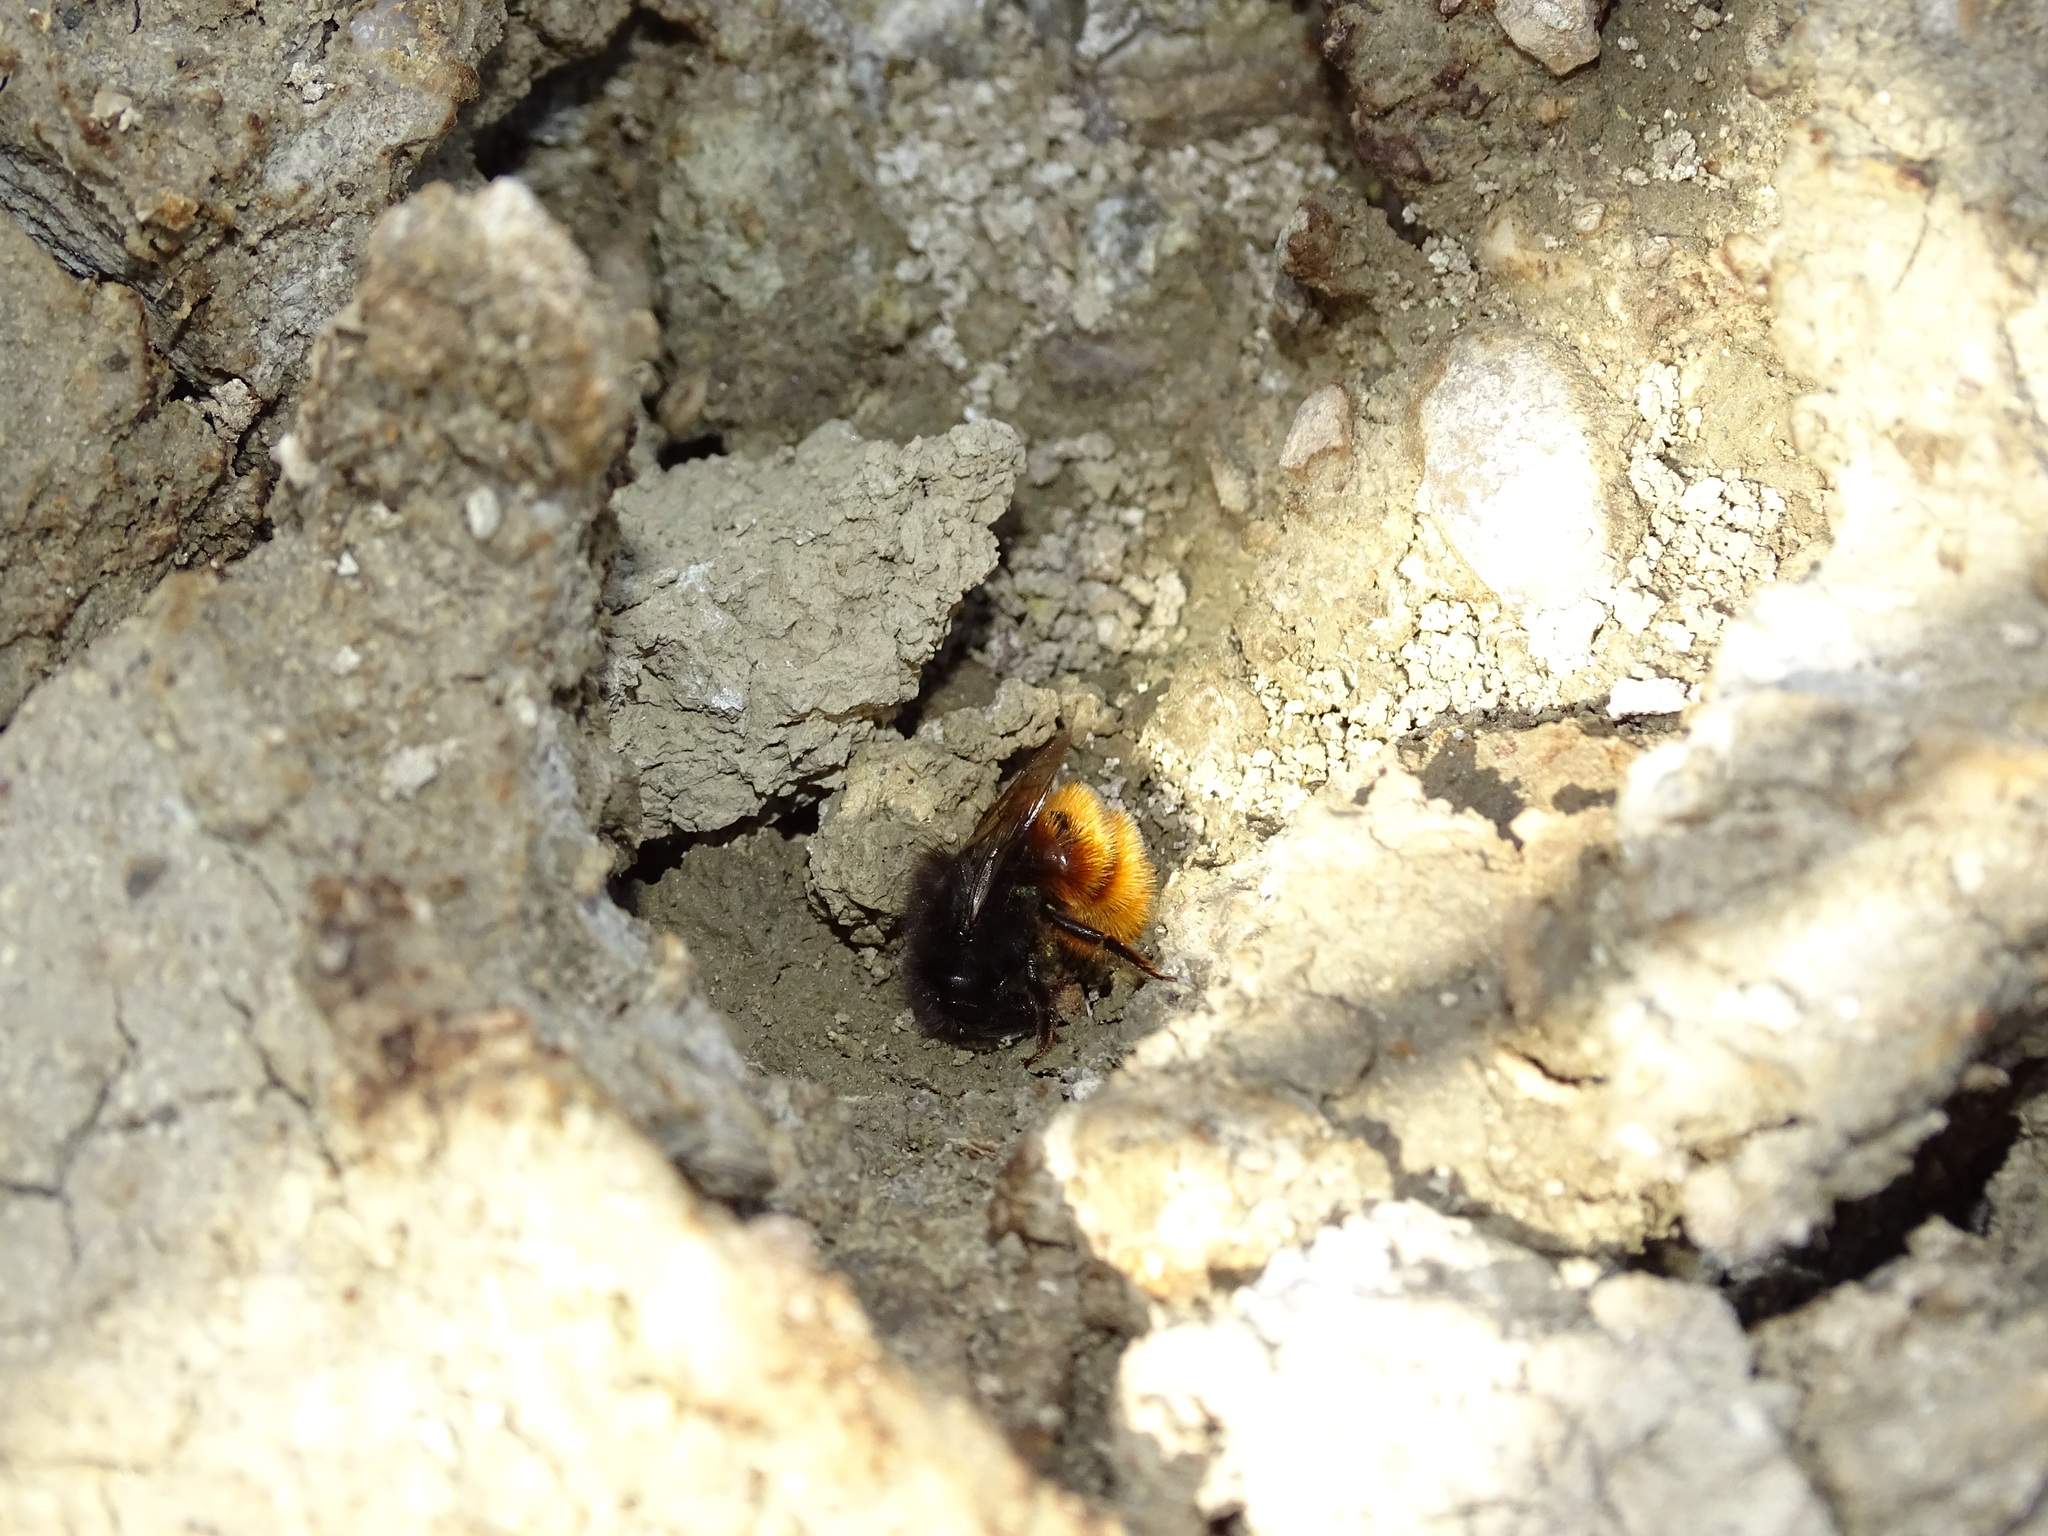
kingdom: Animalia
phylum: Arthropoda
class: Insecta
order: Hymenoptera
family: Megachilidae
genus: Osmia
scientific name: Osmia cornuta
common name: Mason bee
